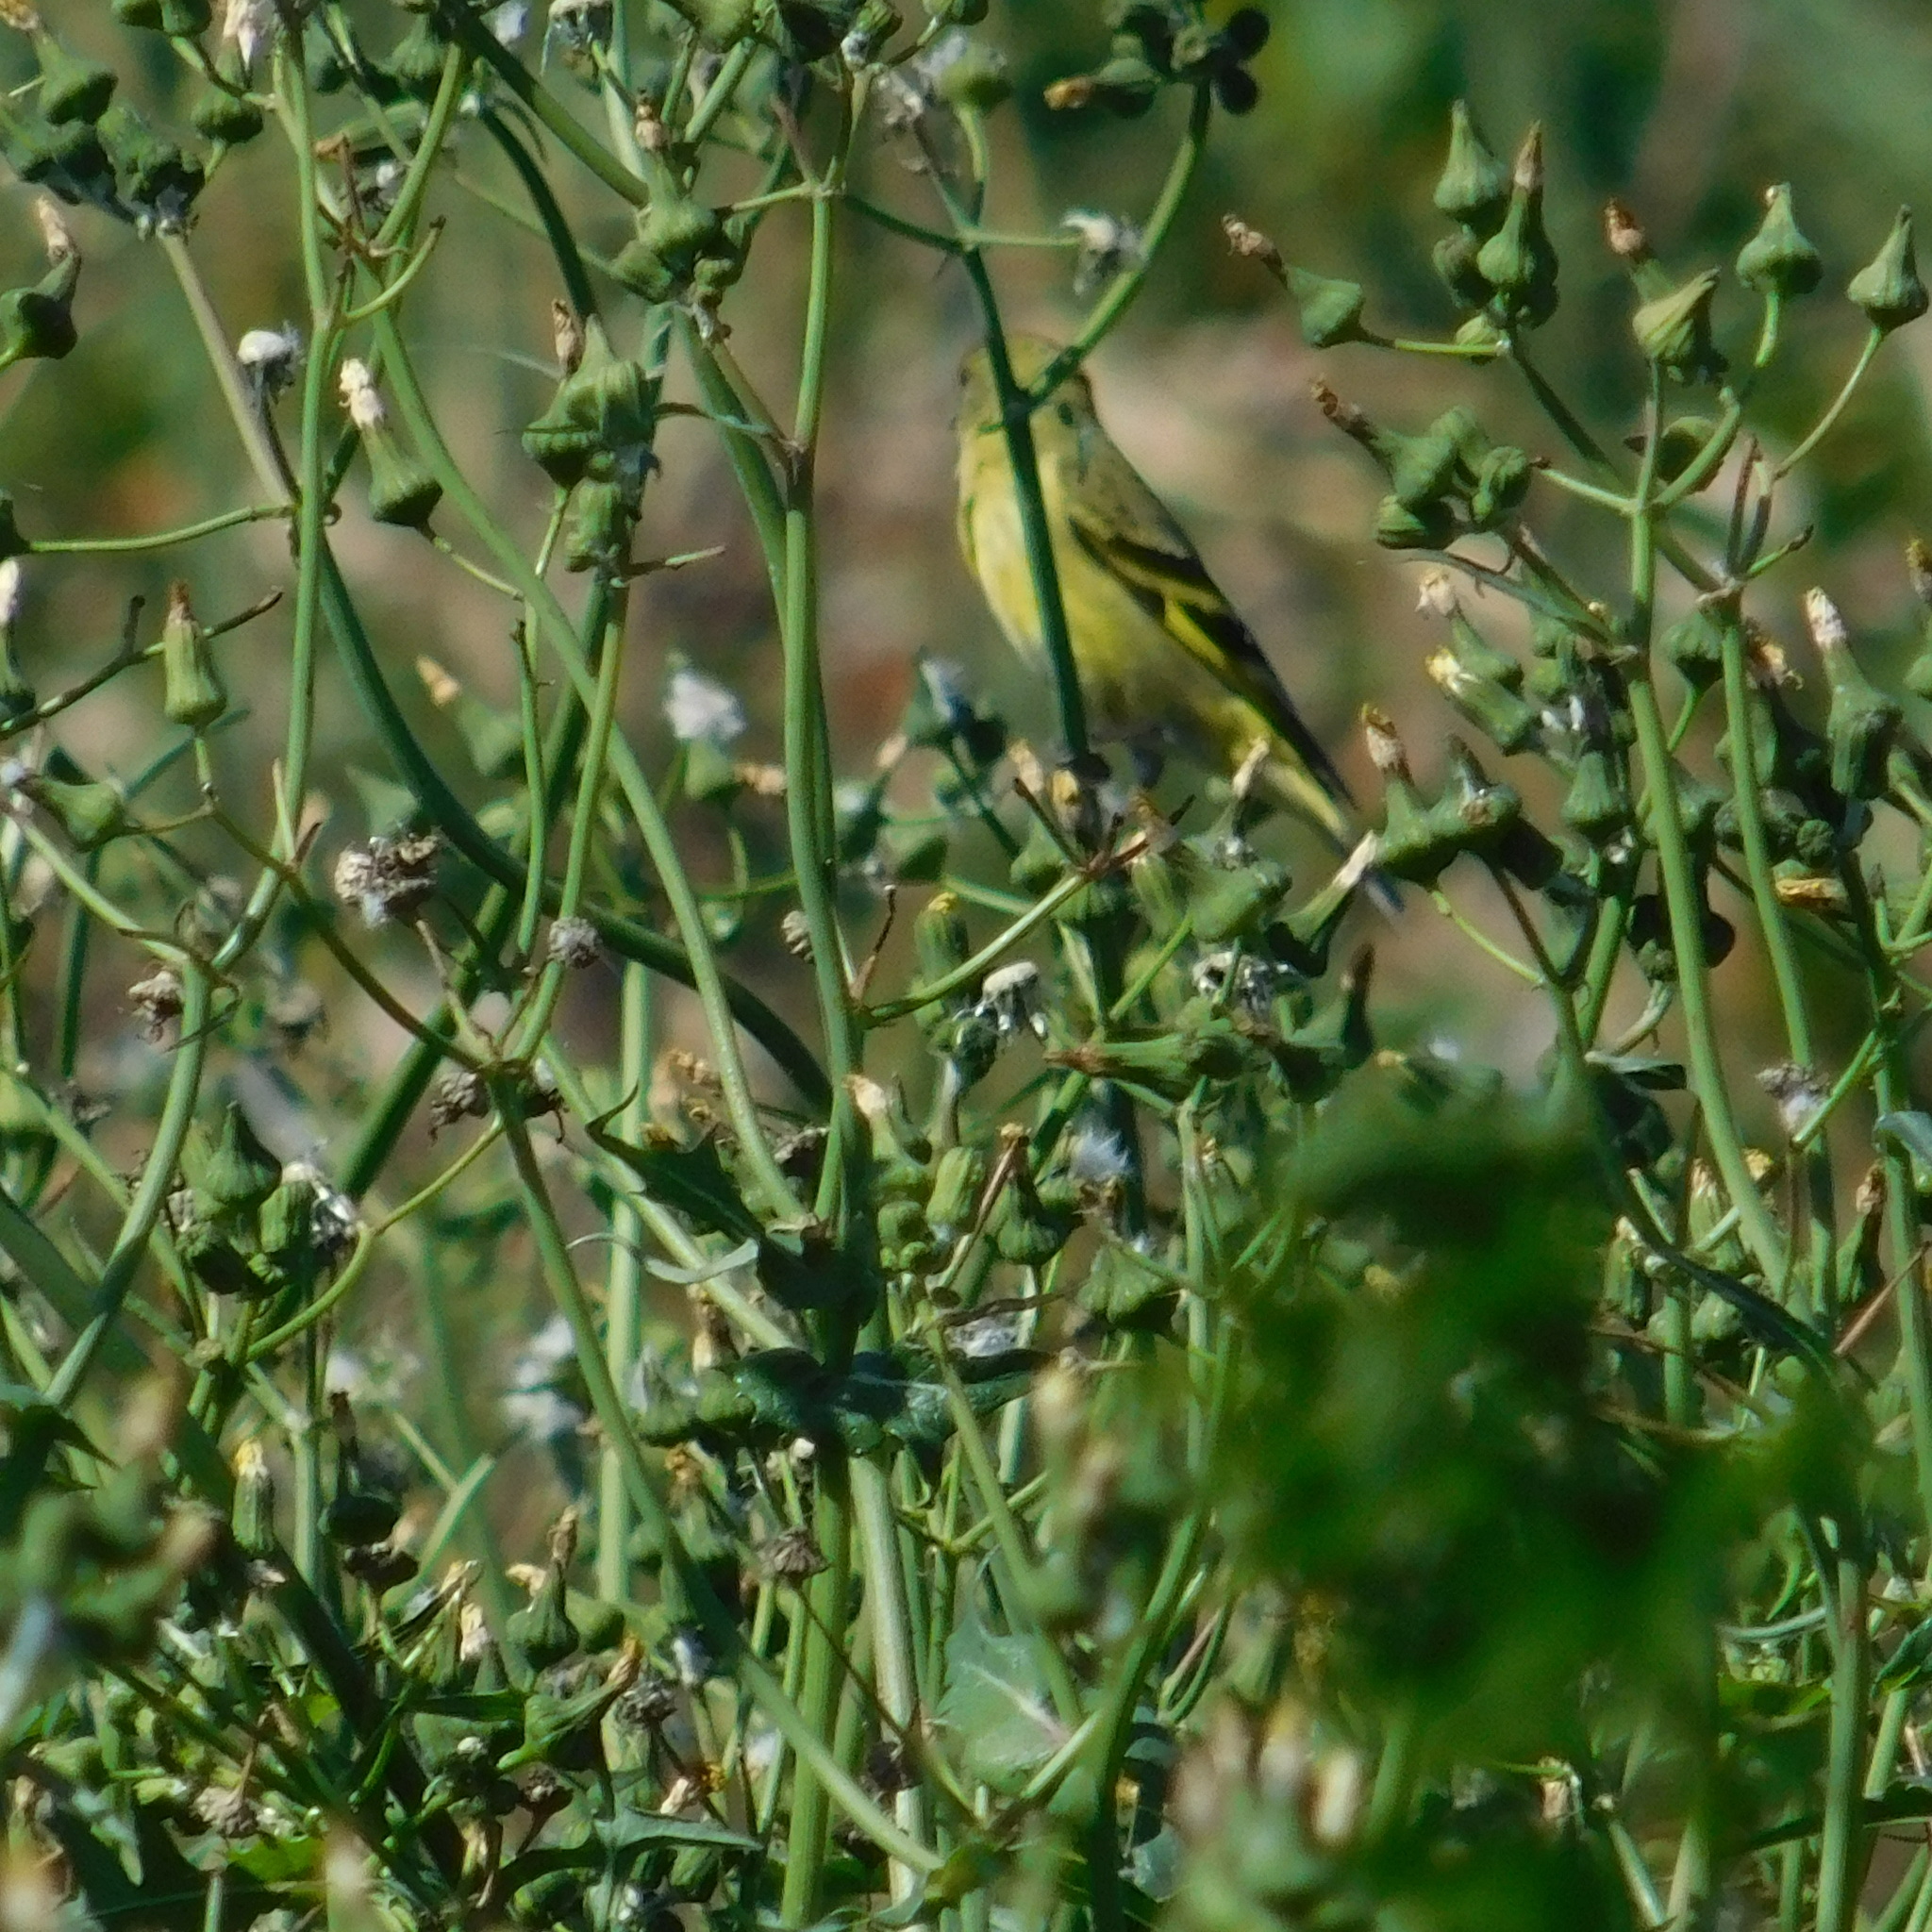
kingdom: Animalia
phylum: Chordata
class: Aves
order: Passeriformes
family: Fringillidae
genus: Spinus
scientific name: Spinus magellanicus
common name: Hooded siskin
